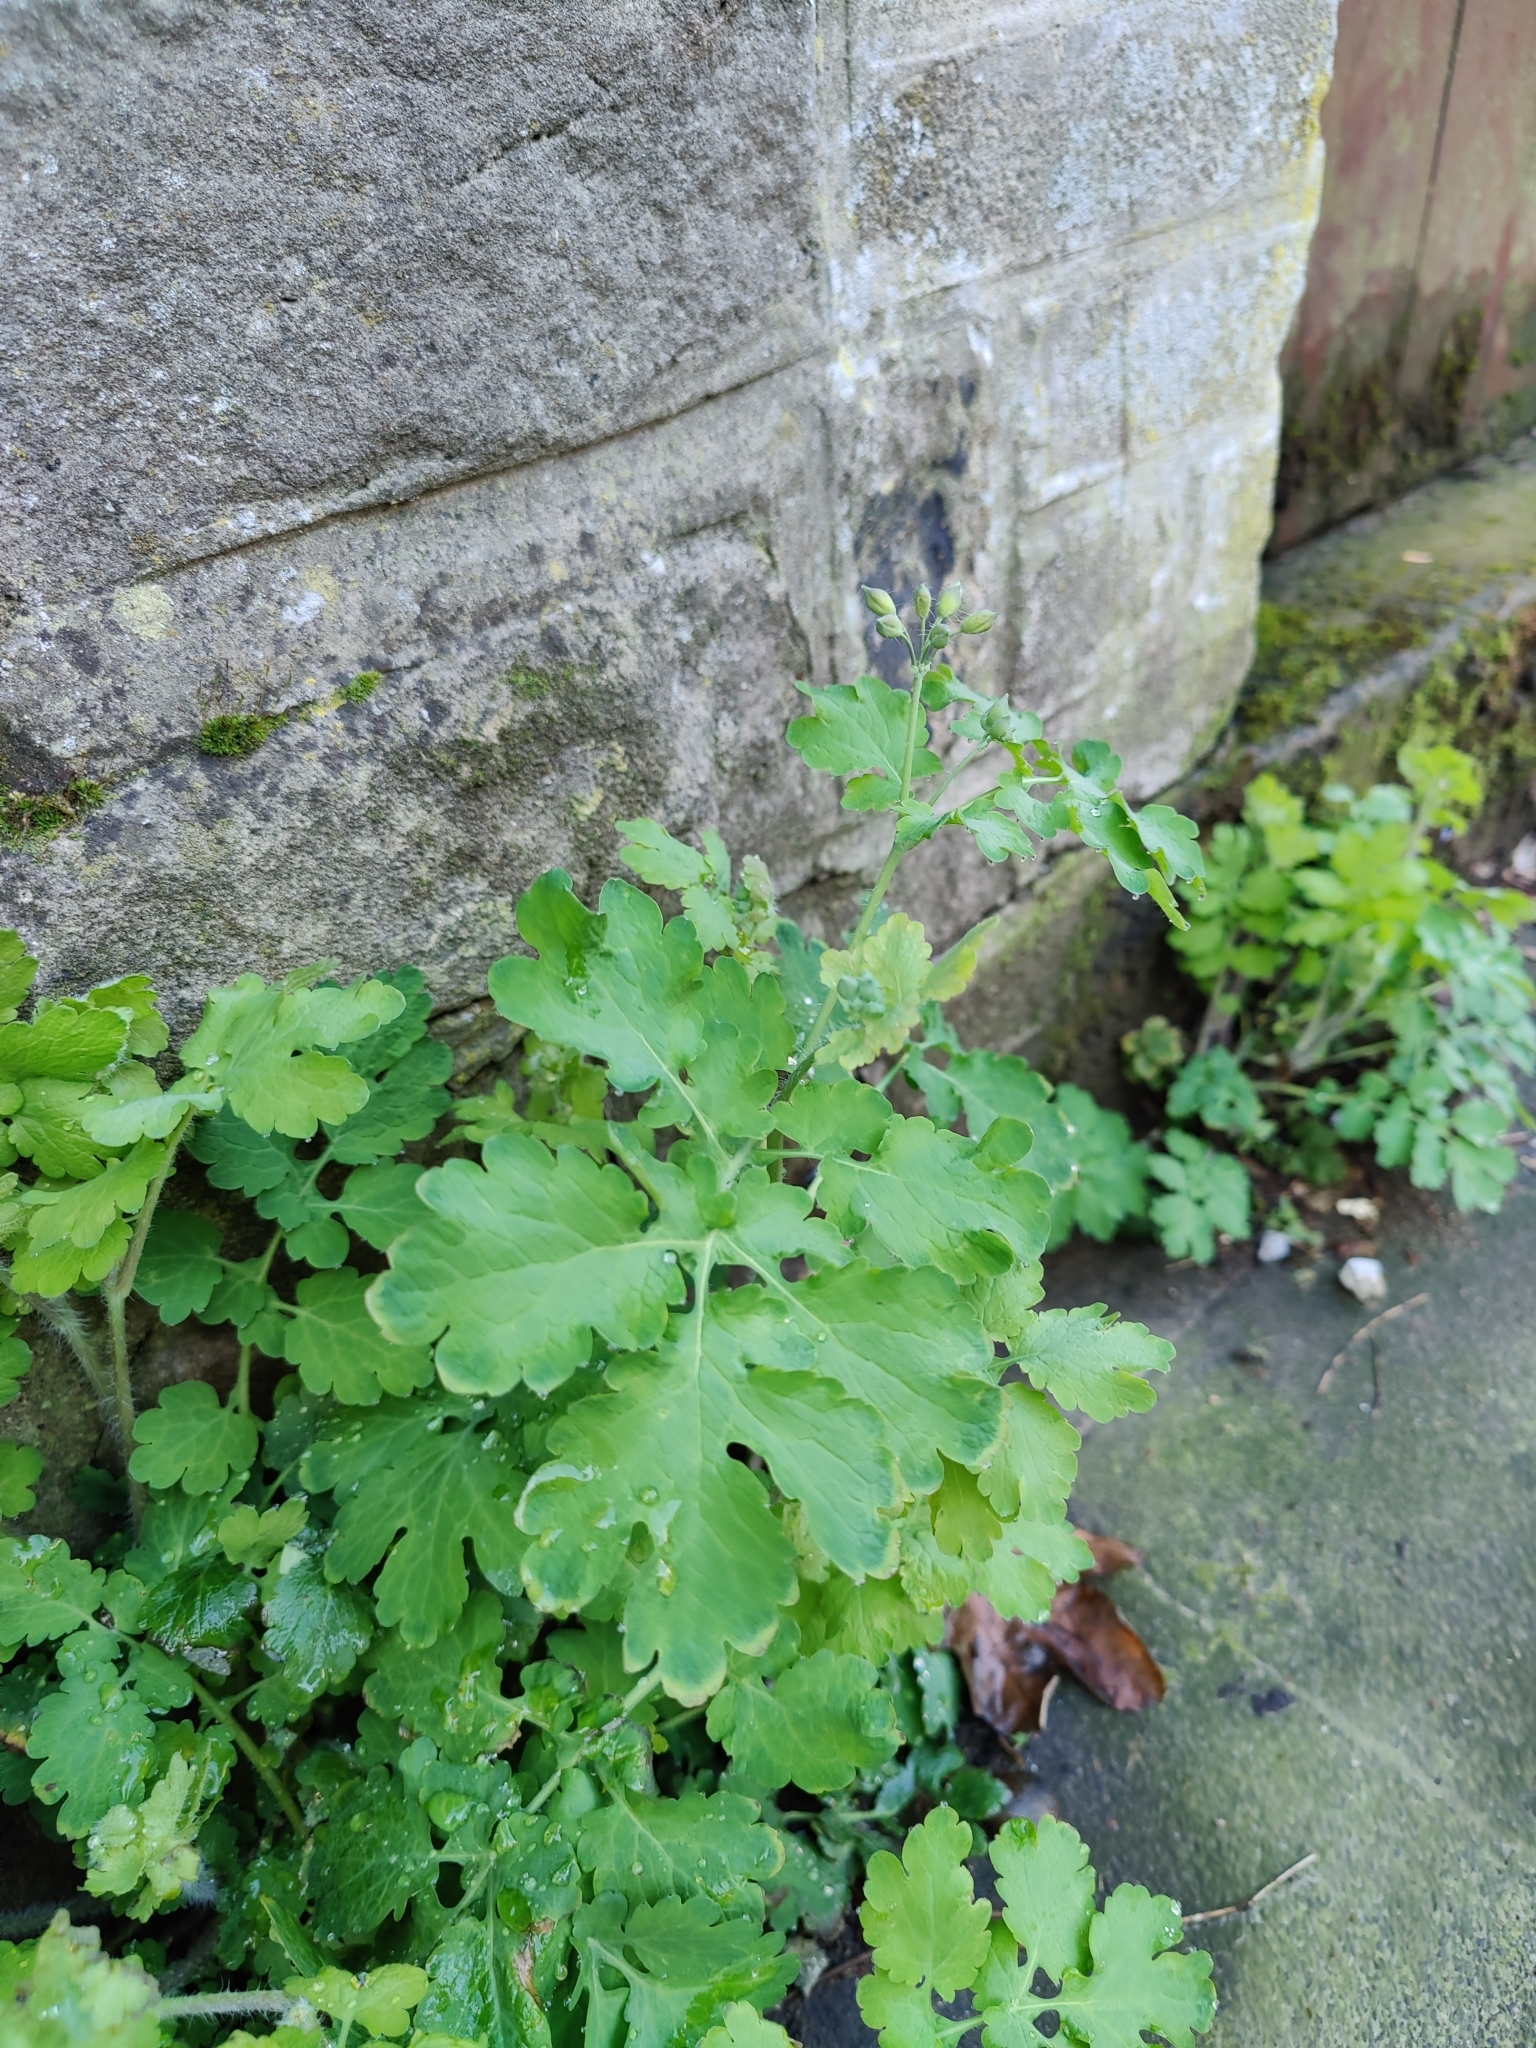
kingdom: Plantae
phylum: Tracheophyta
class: Magnoliopsida
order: Ranunculales
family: Papaveraceae
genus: Chelidonium
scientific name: Chelidonium majus
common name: Greater celandine
